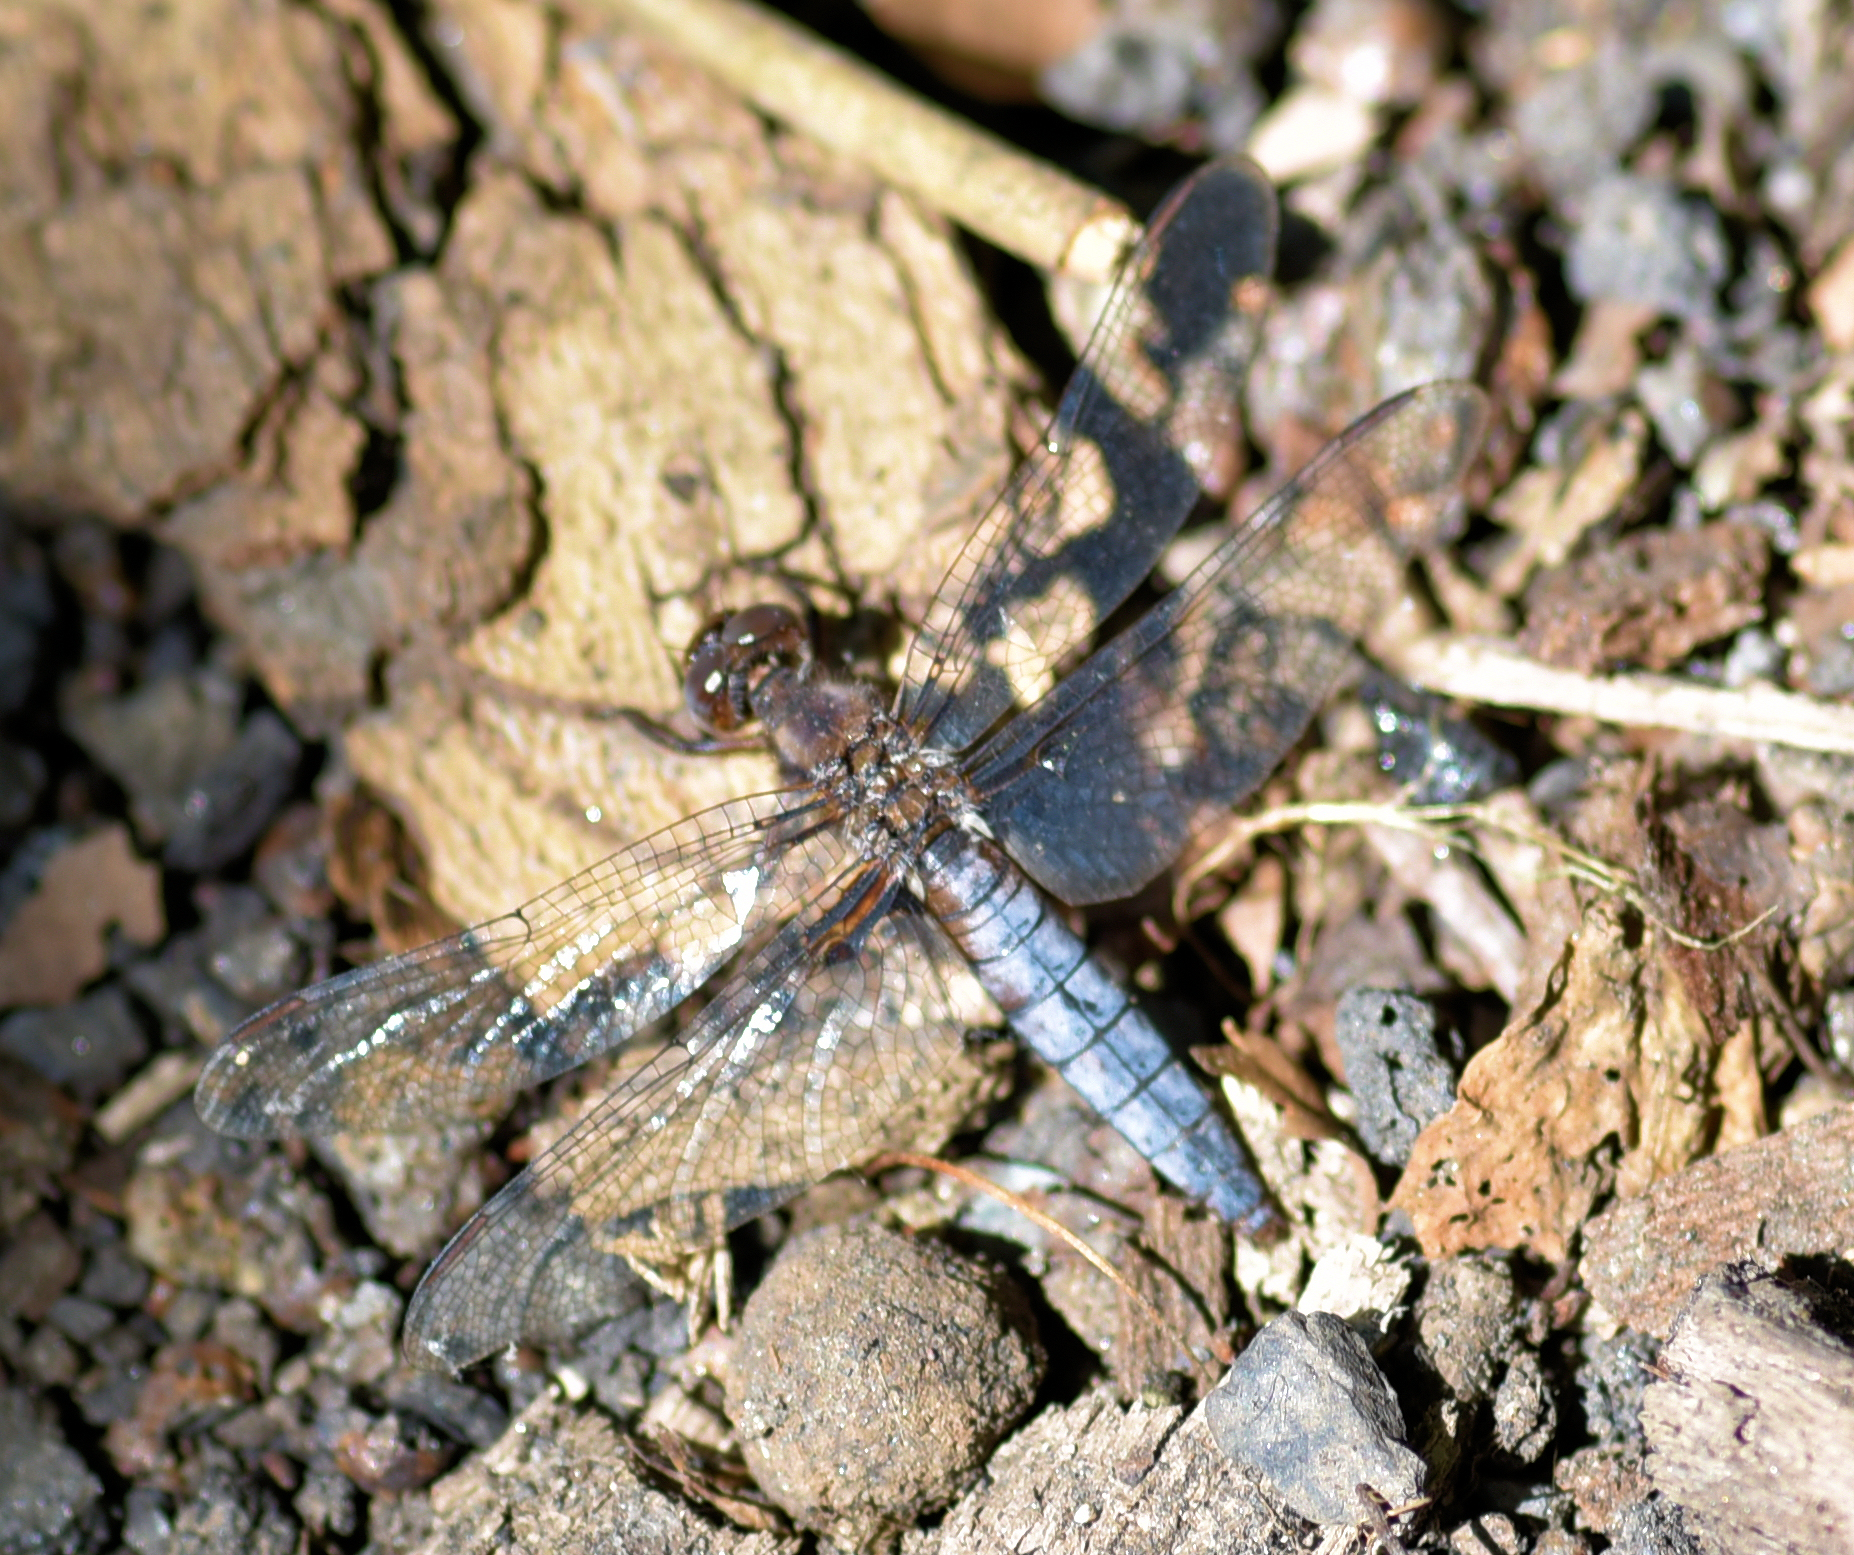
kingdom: Animalia
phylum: Arthropoda
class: Insecta
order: Odonata
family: Libellulidae
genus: Ladona
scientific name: Ladona deplanata
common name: Blue corporal
